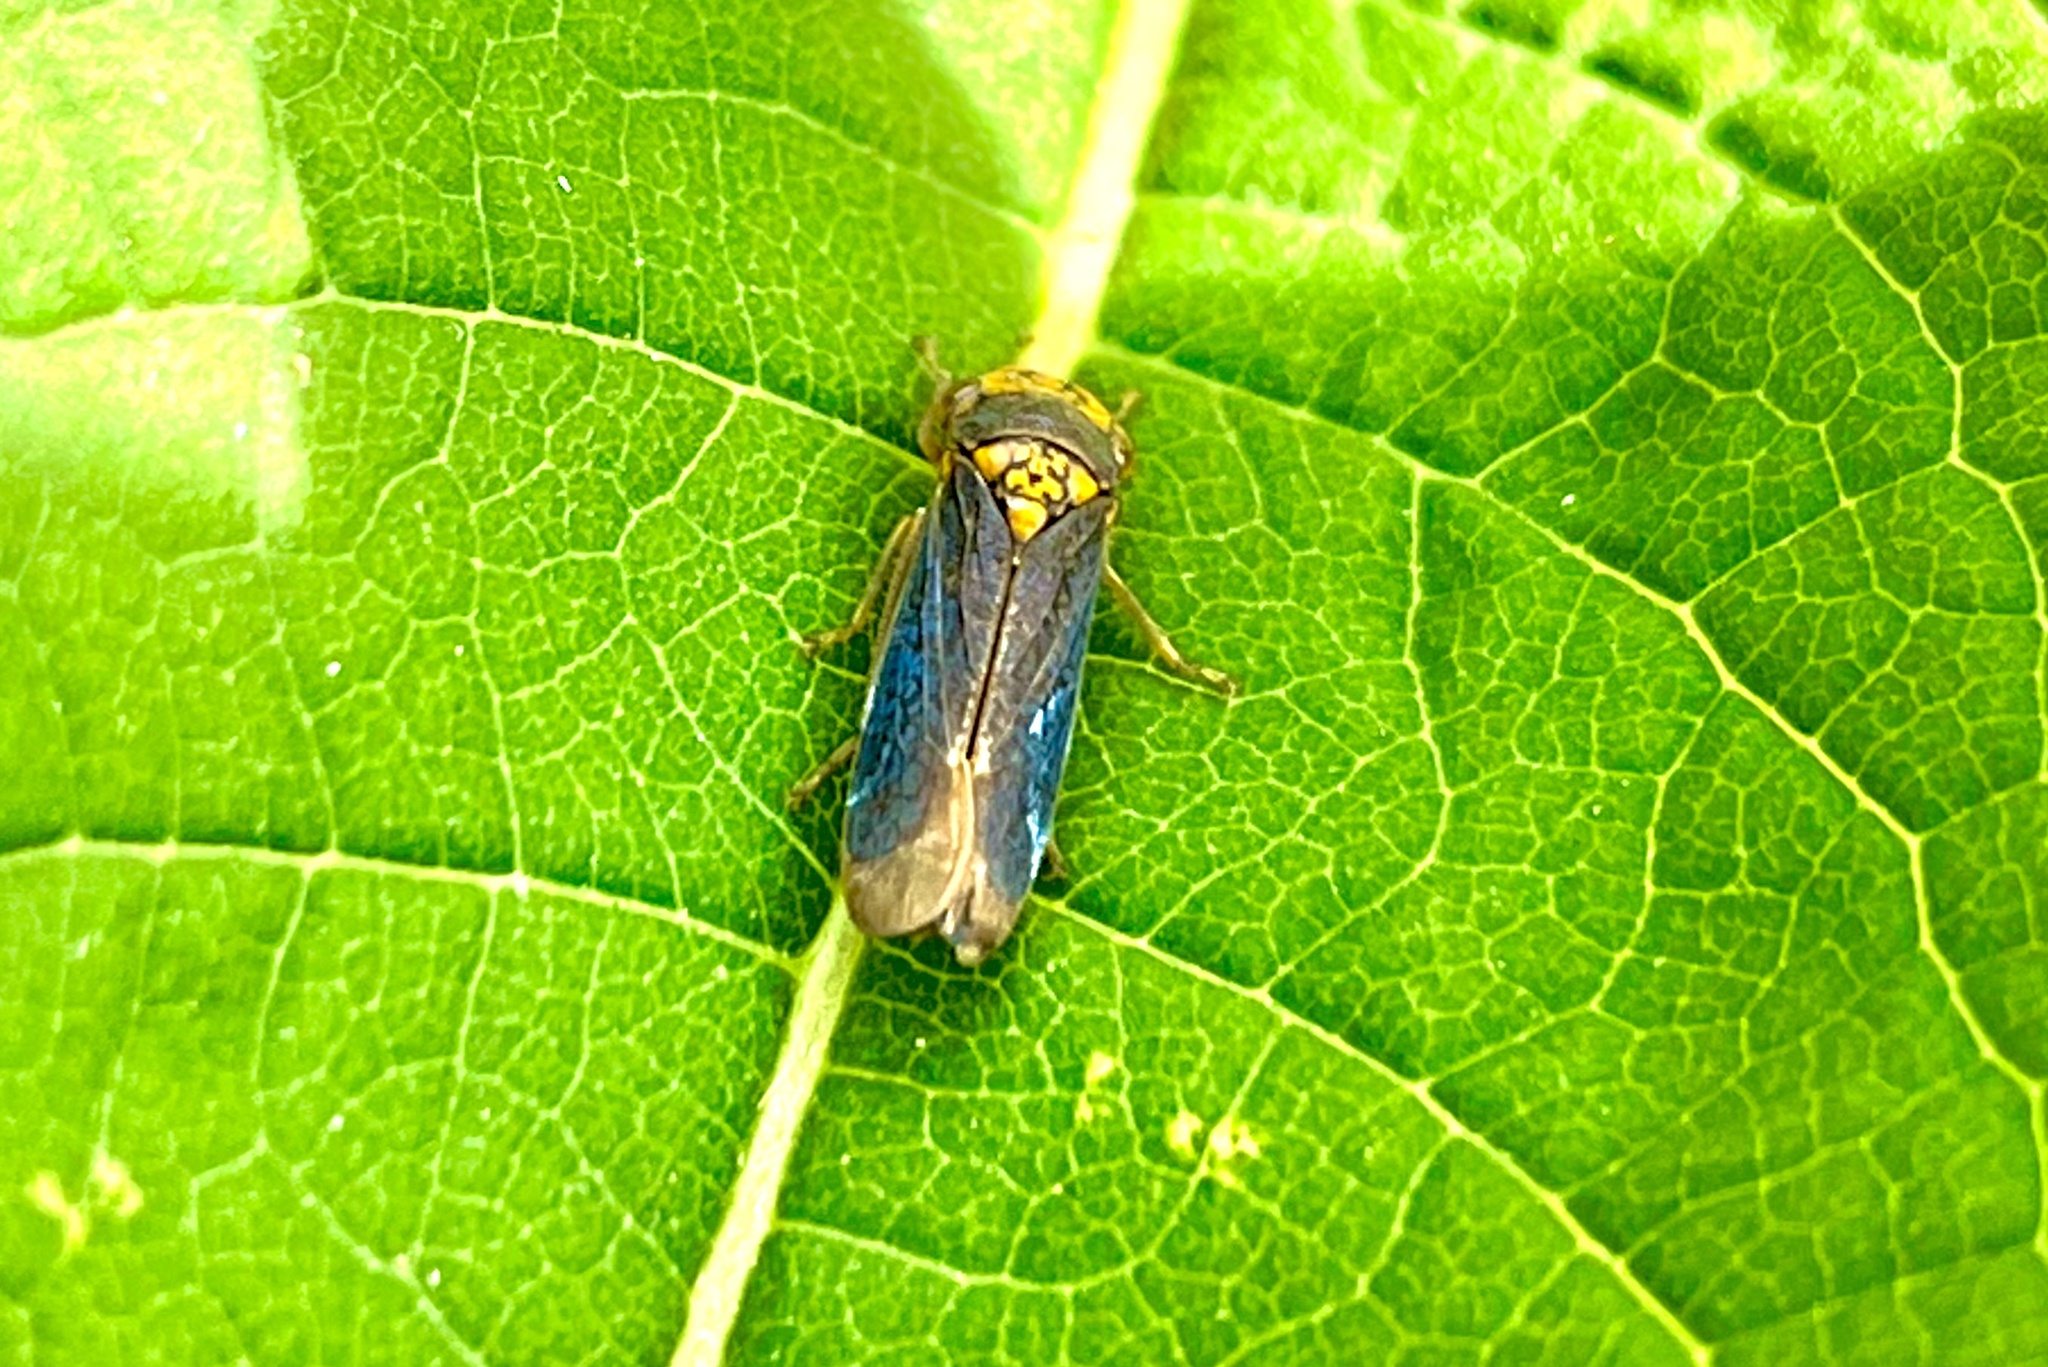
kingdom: Animalia
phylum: Arthropoda
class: Insecta
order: Hemiptera
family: Cicadellidae
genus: Oncometopia
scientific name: Oncometopia orbona
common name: Broad-headed sharpshooter
